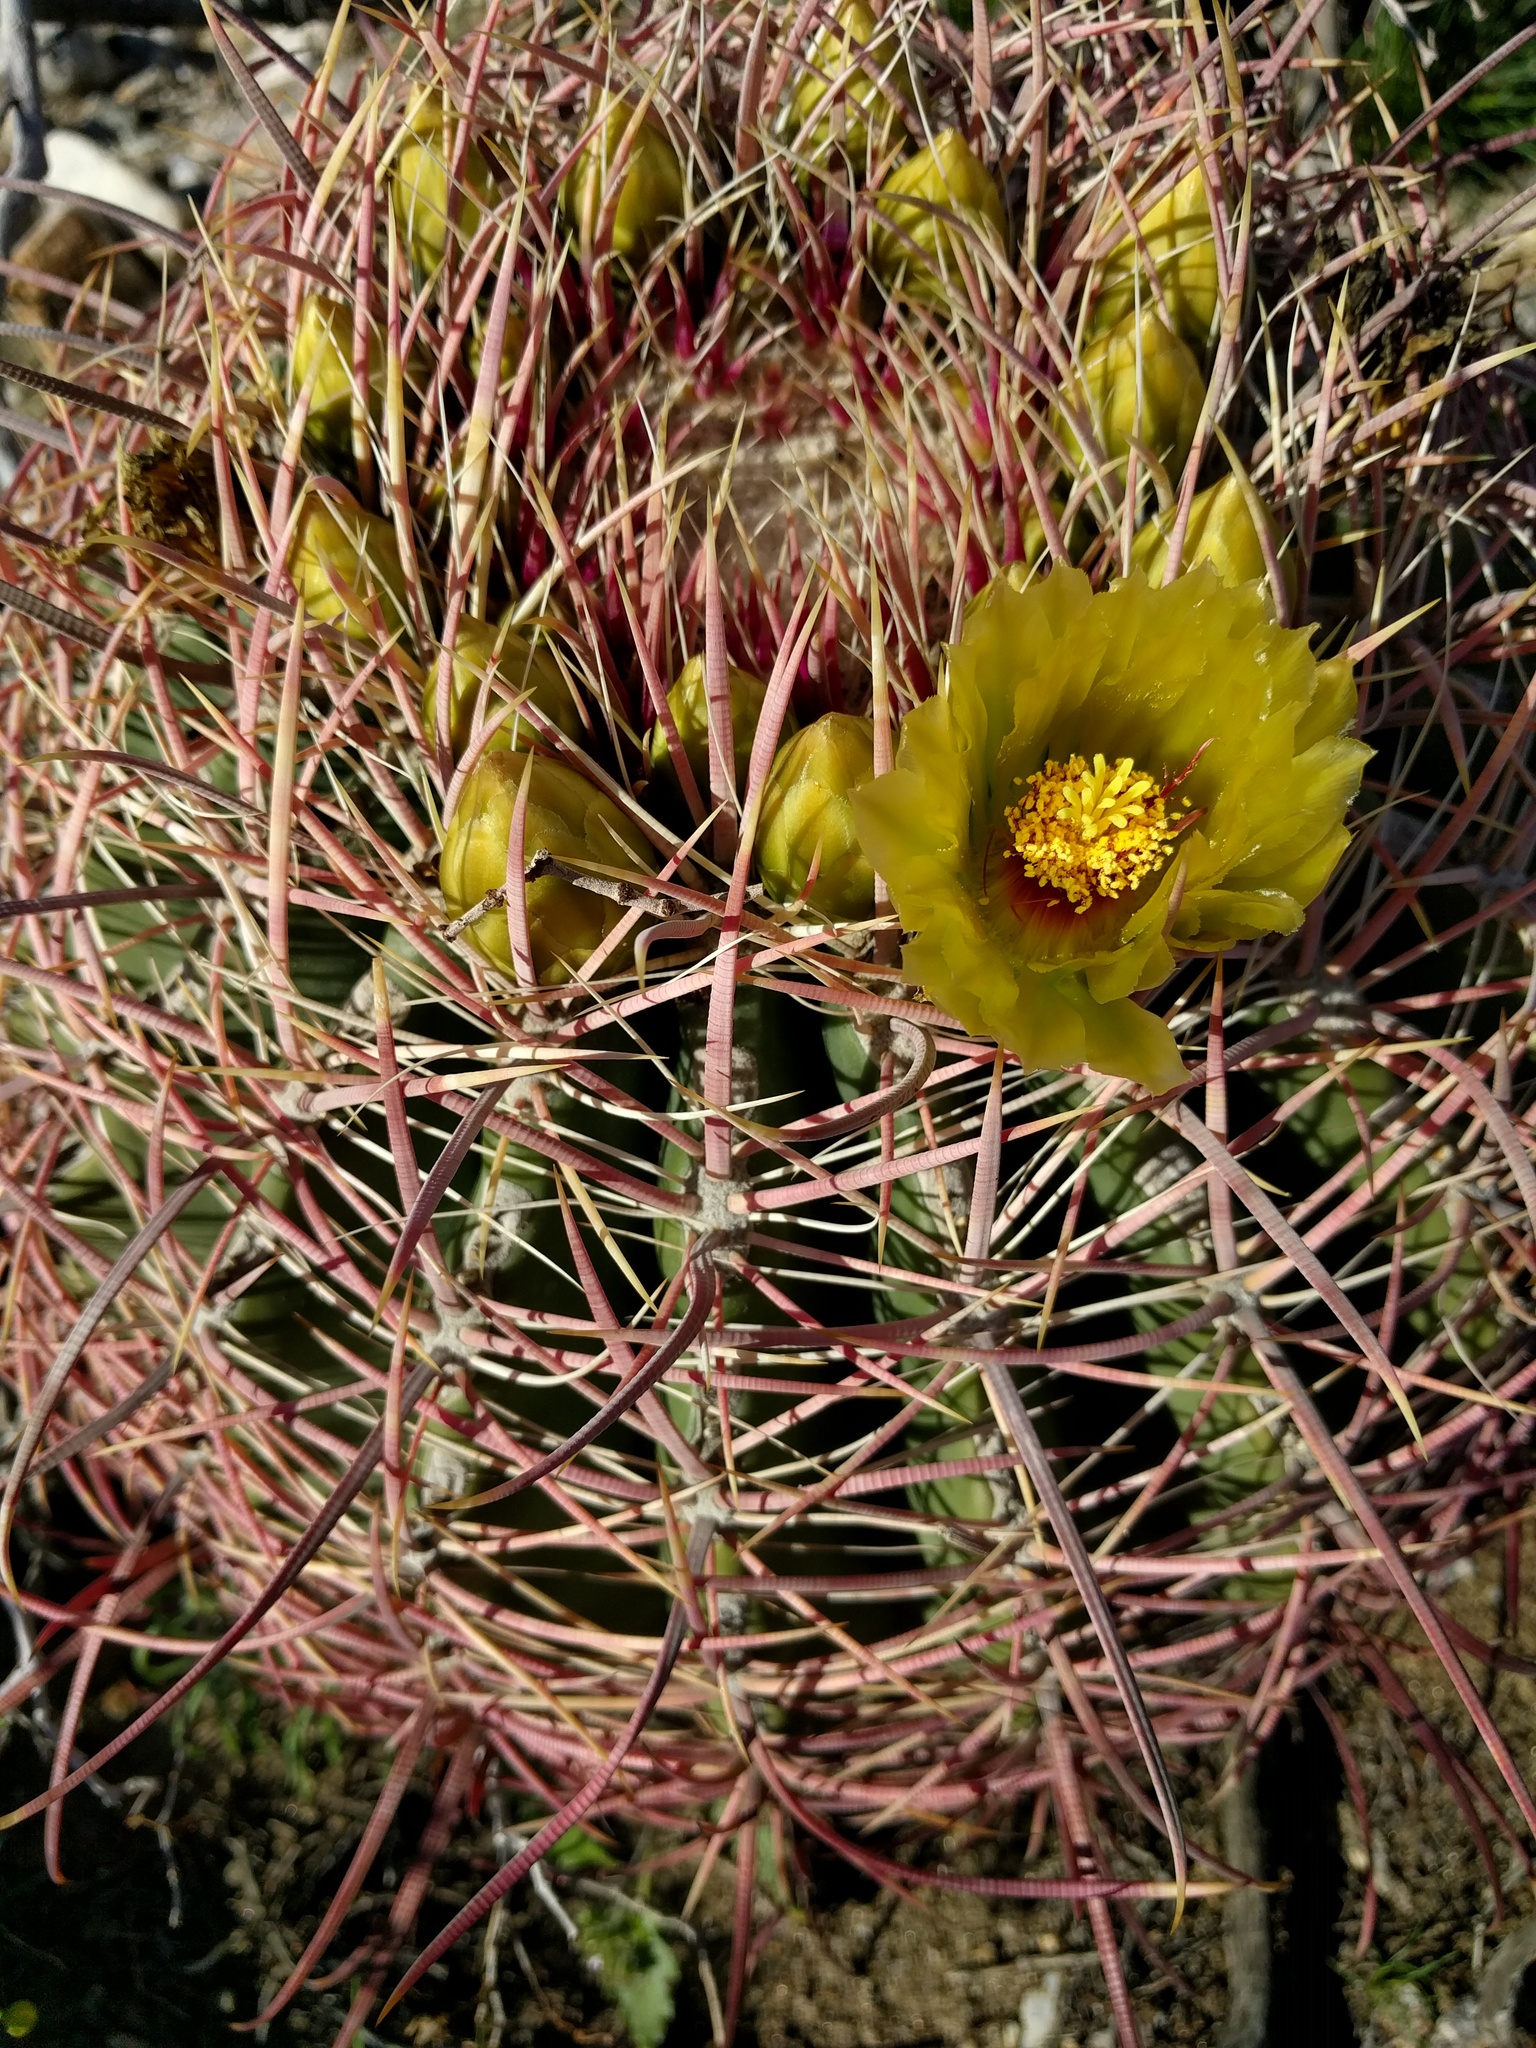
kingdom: Plantae
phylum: Tracheophyta
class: Magnoliopsida
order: Caryophyllales
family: Cactaceae
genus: Ferocactus
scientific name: Ferocactus cylindraceus
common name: California barrel cactus
